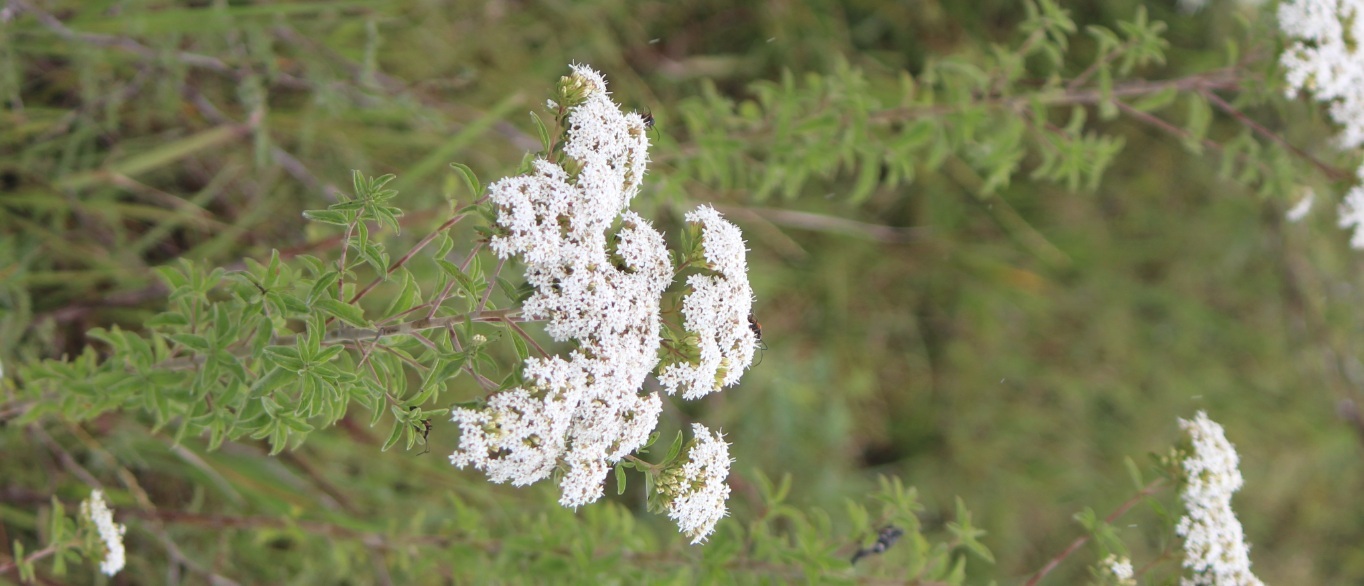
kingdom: Plantae
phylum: Tracheophyta
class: Magnoliopsida
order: Asterales
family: Asteraceae
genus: Stevia
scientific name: Stevia serrata
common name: Sawtooth candyleaf
